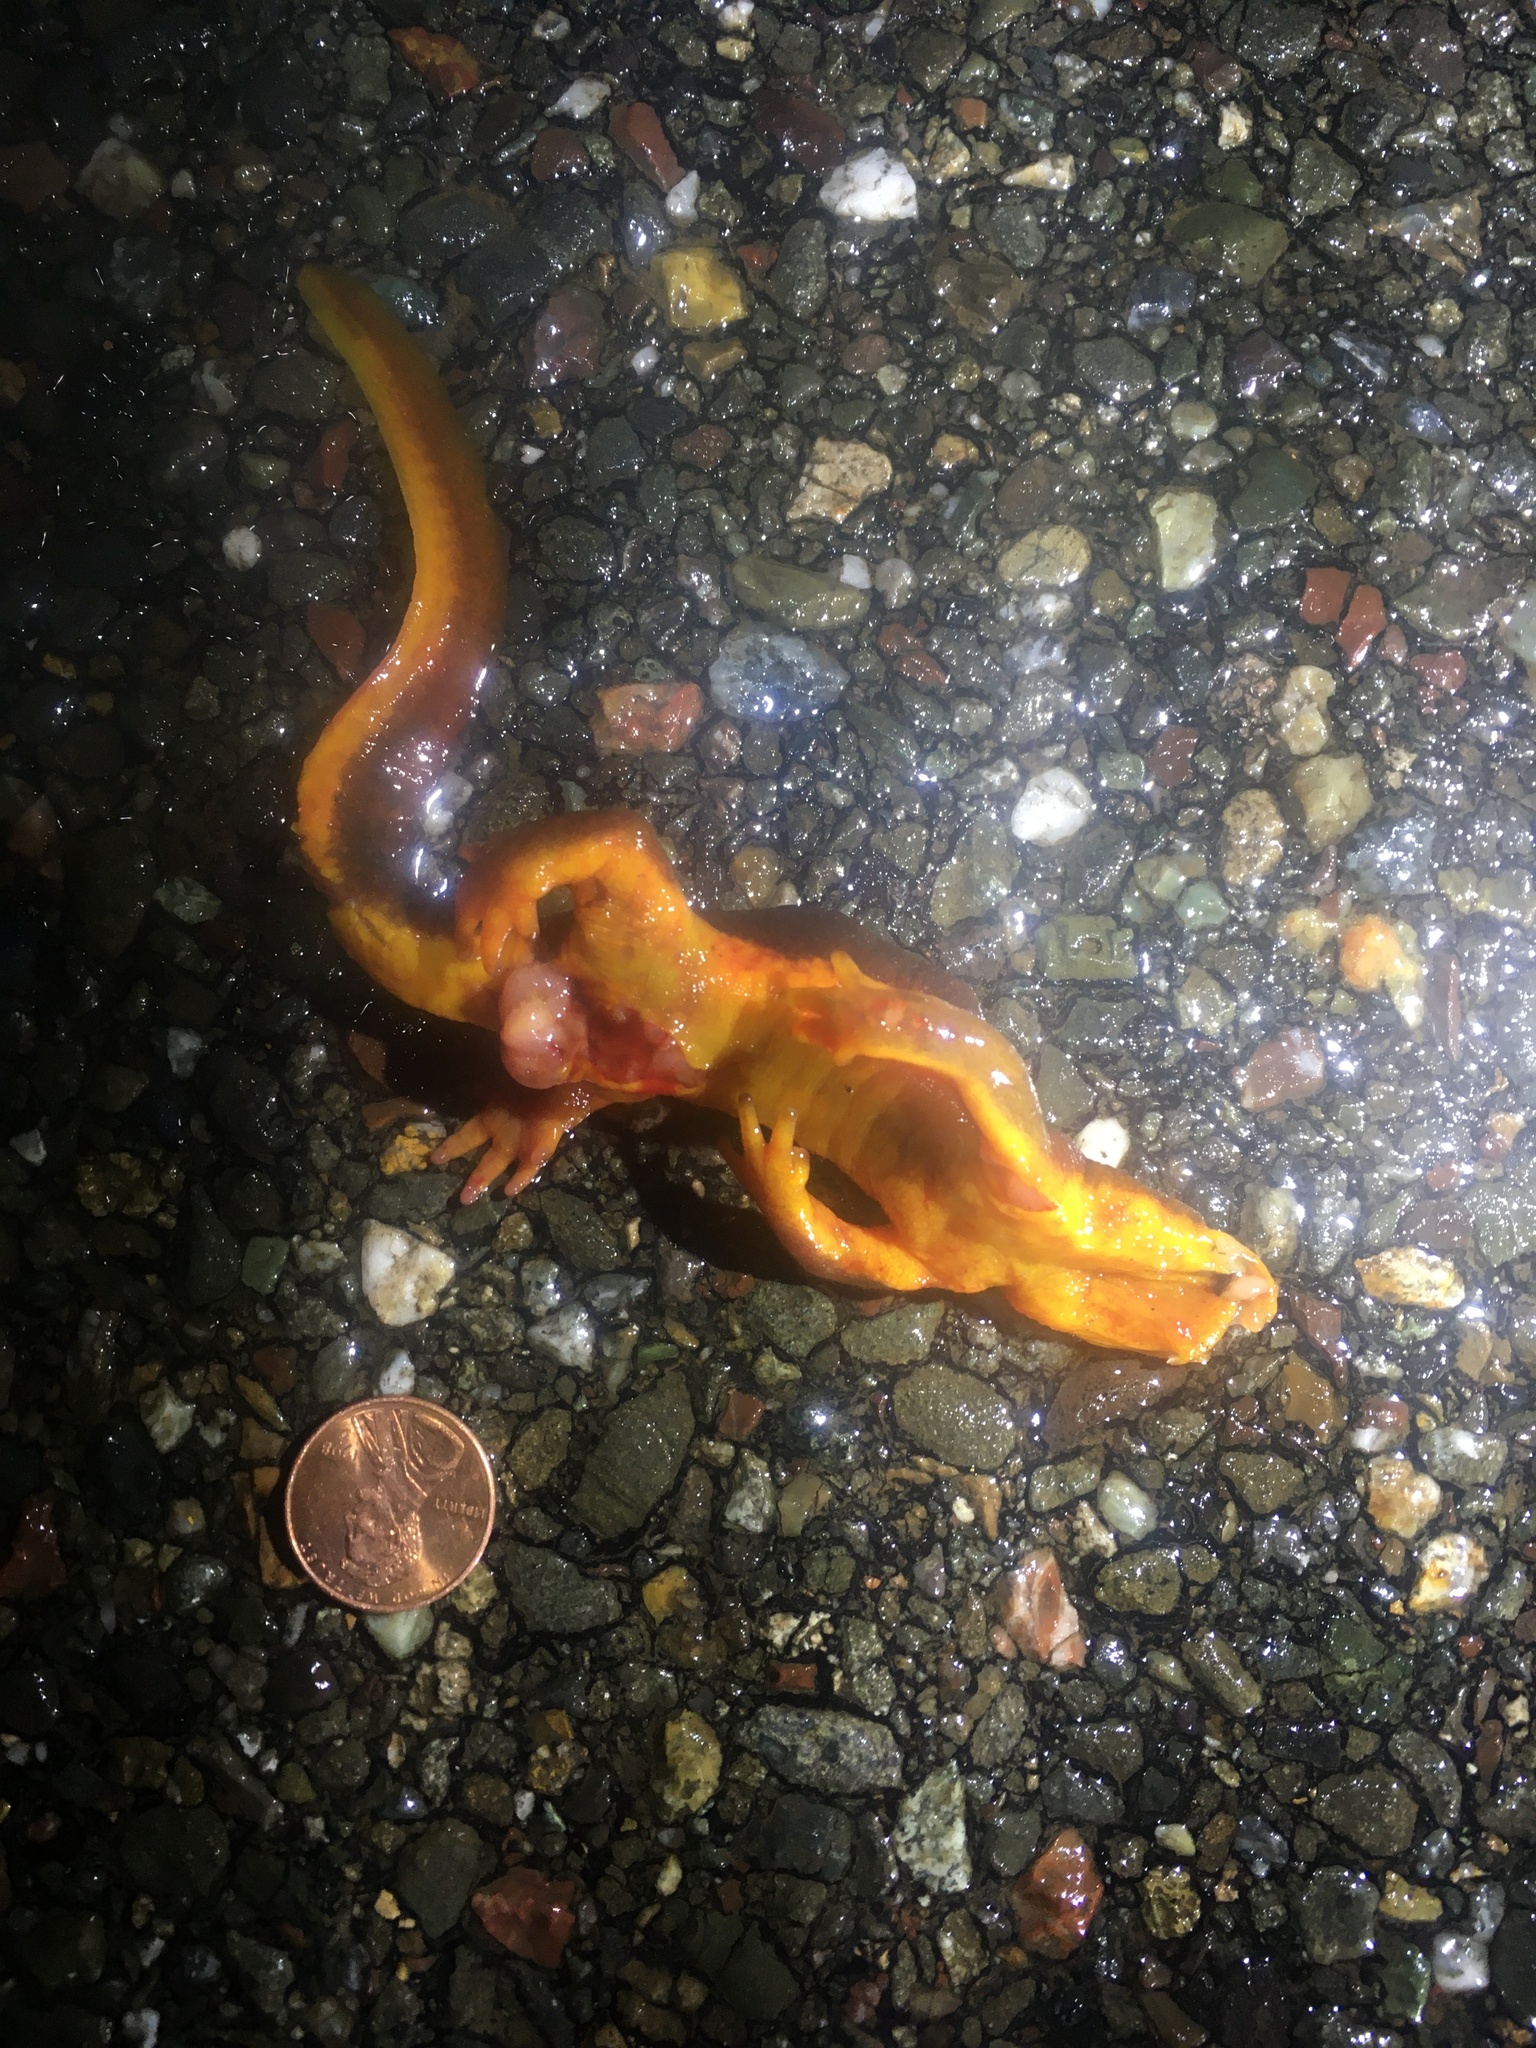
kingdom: Animalia
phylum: Chordata
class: Amphibia
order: Caudata
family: Salamandridae
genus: Taricha
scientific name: Taricha
